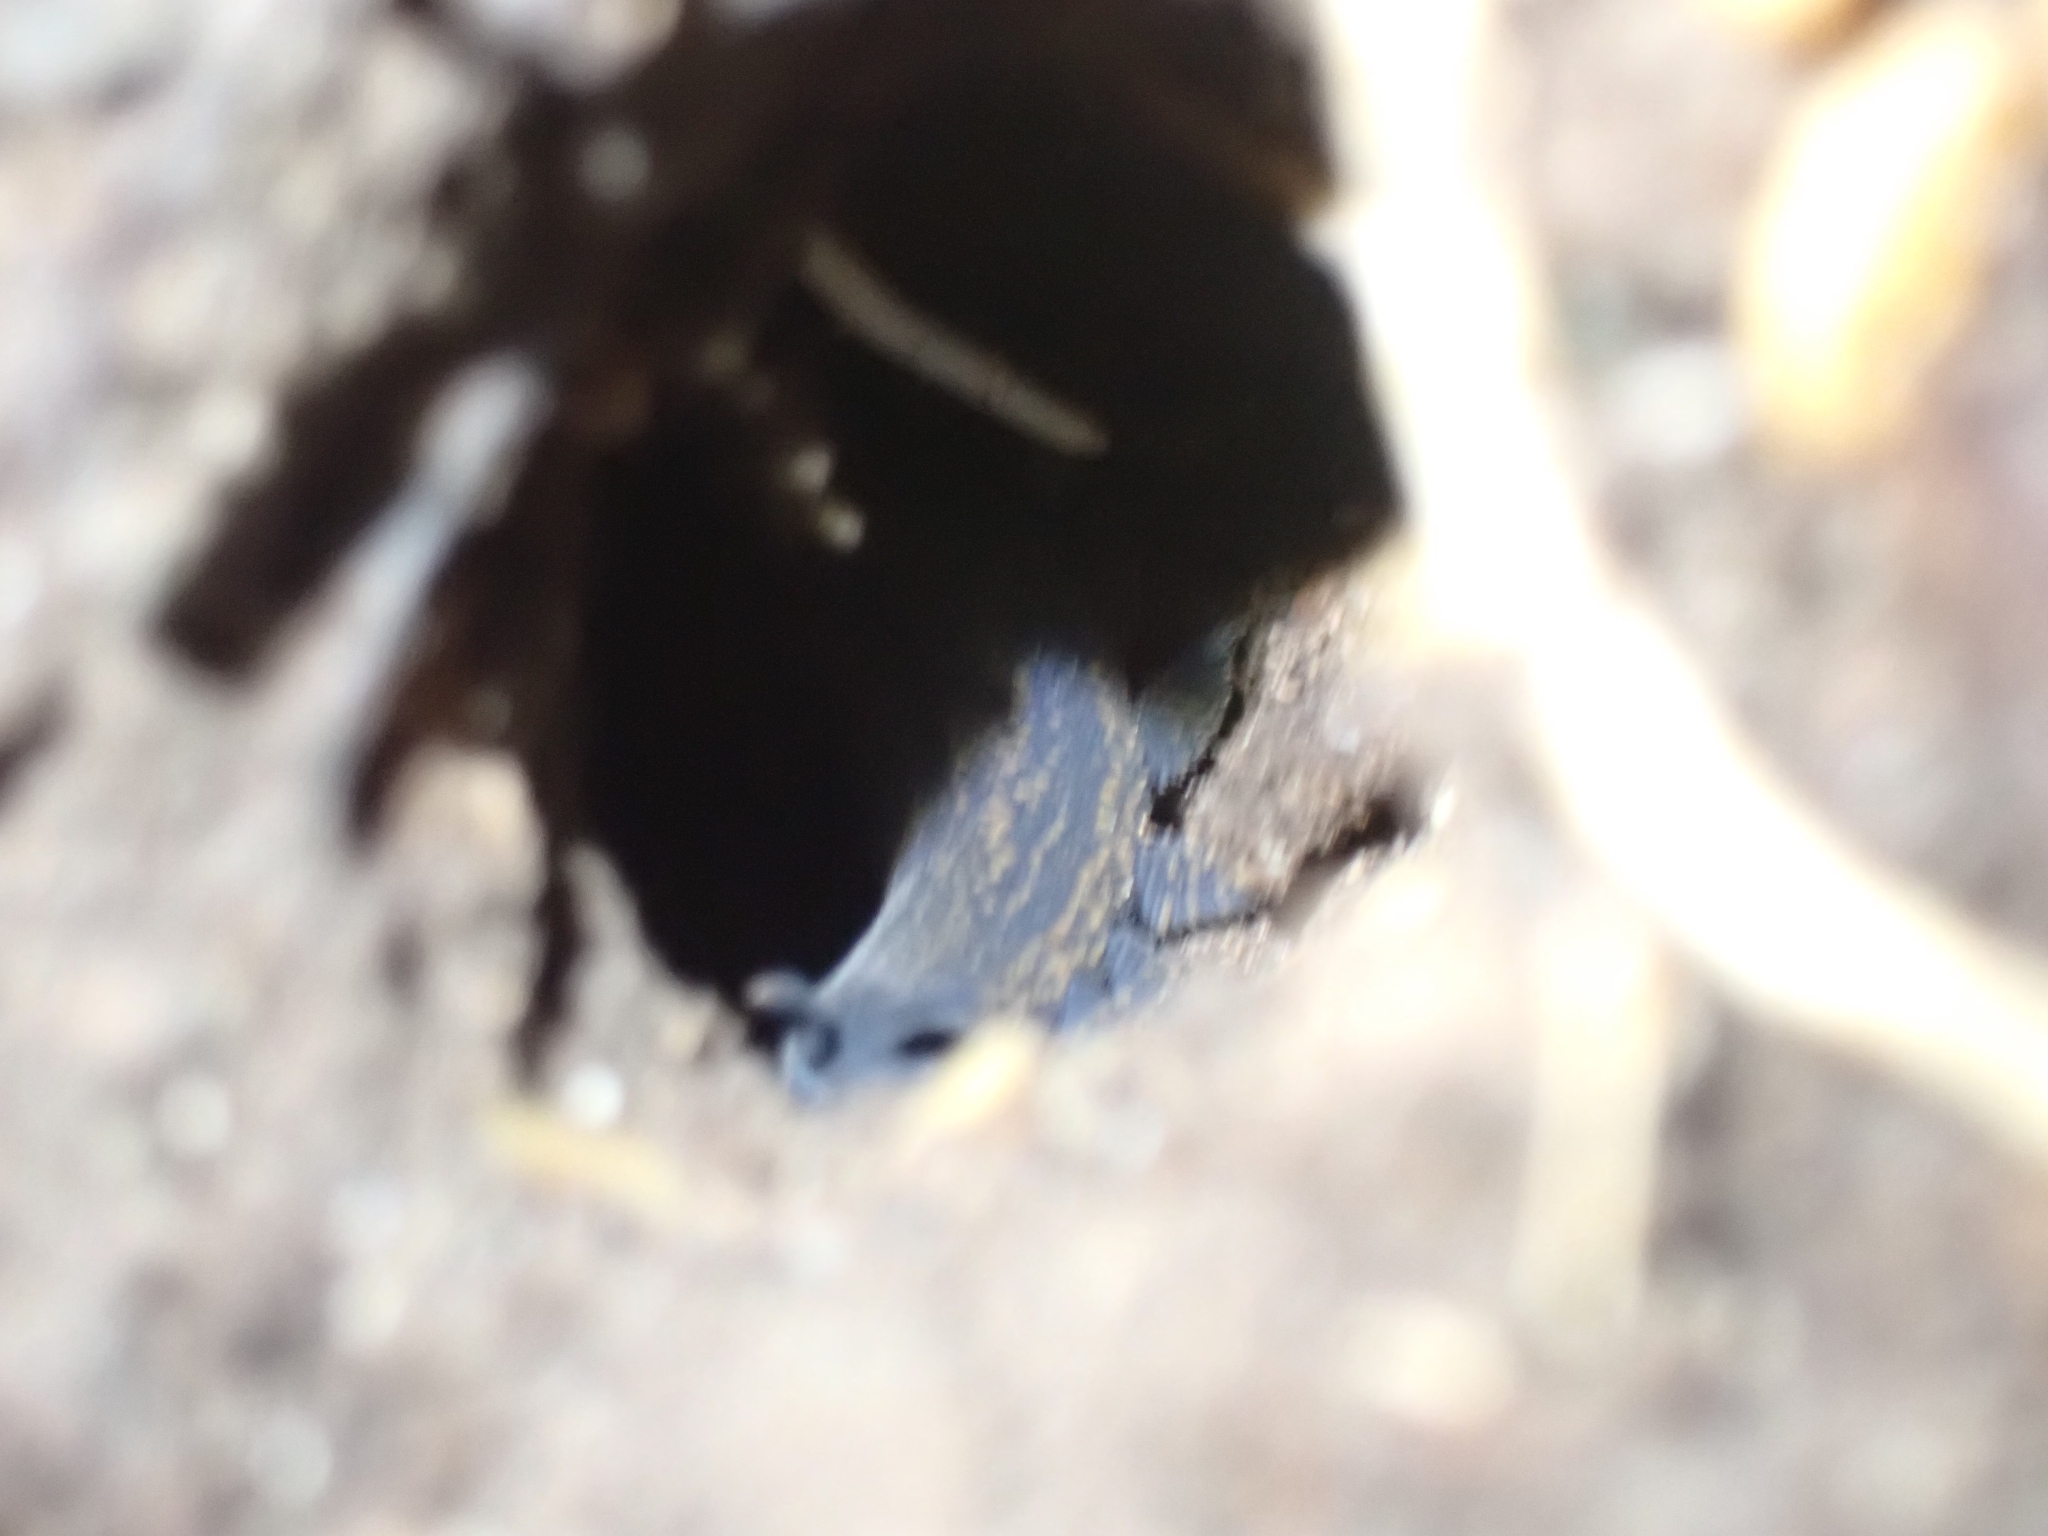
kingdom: Animalia
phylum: Onychophora
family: Peripatopsidae
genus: Peripatoides
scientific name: Peripatoides novaezealandiae
